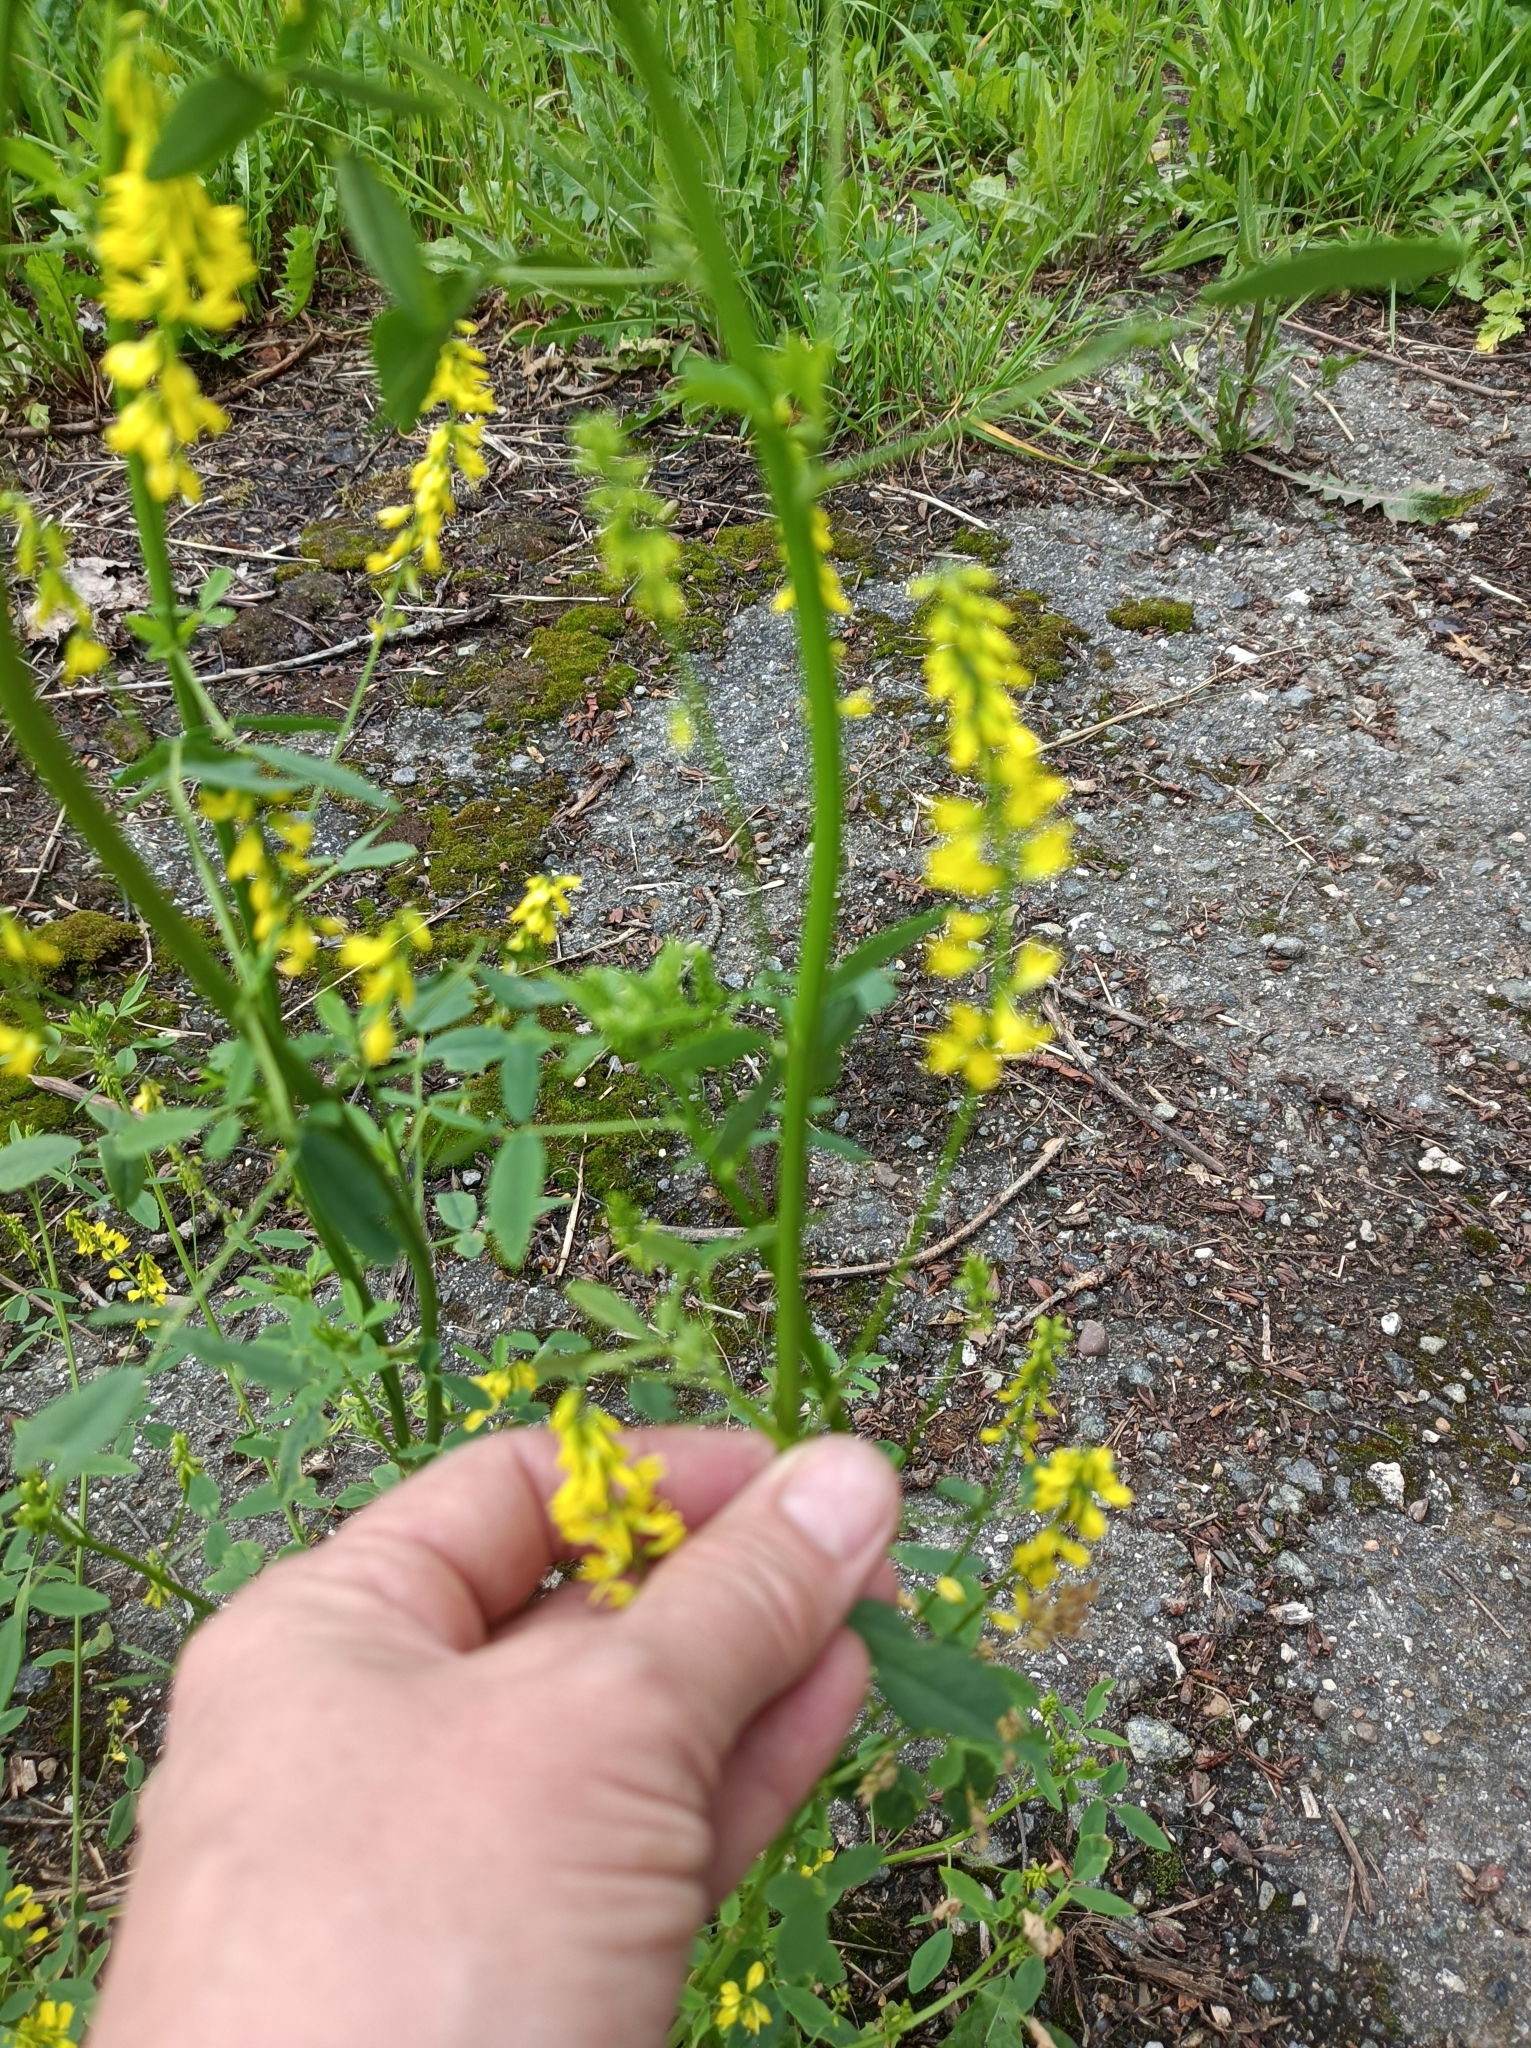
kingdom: Plantae
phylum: Tracheophyta
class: Magnoliopsida
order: Fabales
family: Fabaceae
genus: Melilotus
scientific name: Melilotus officinalis
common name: Sweetclover
